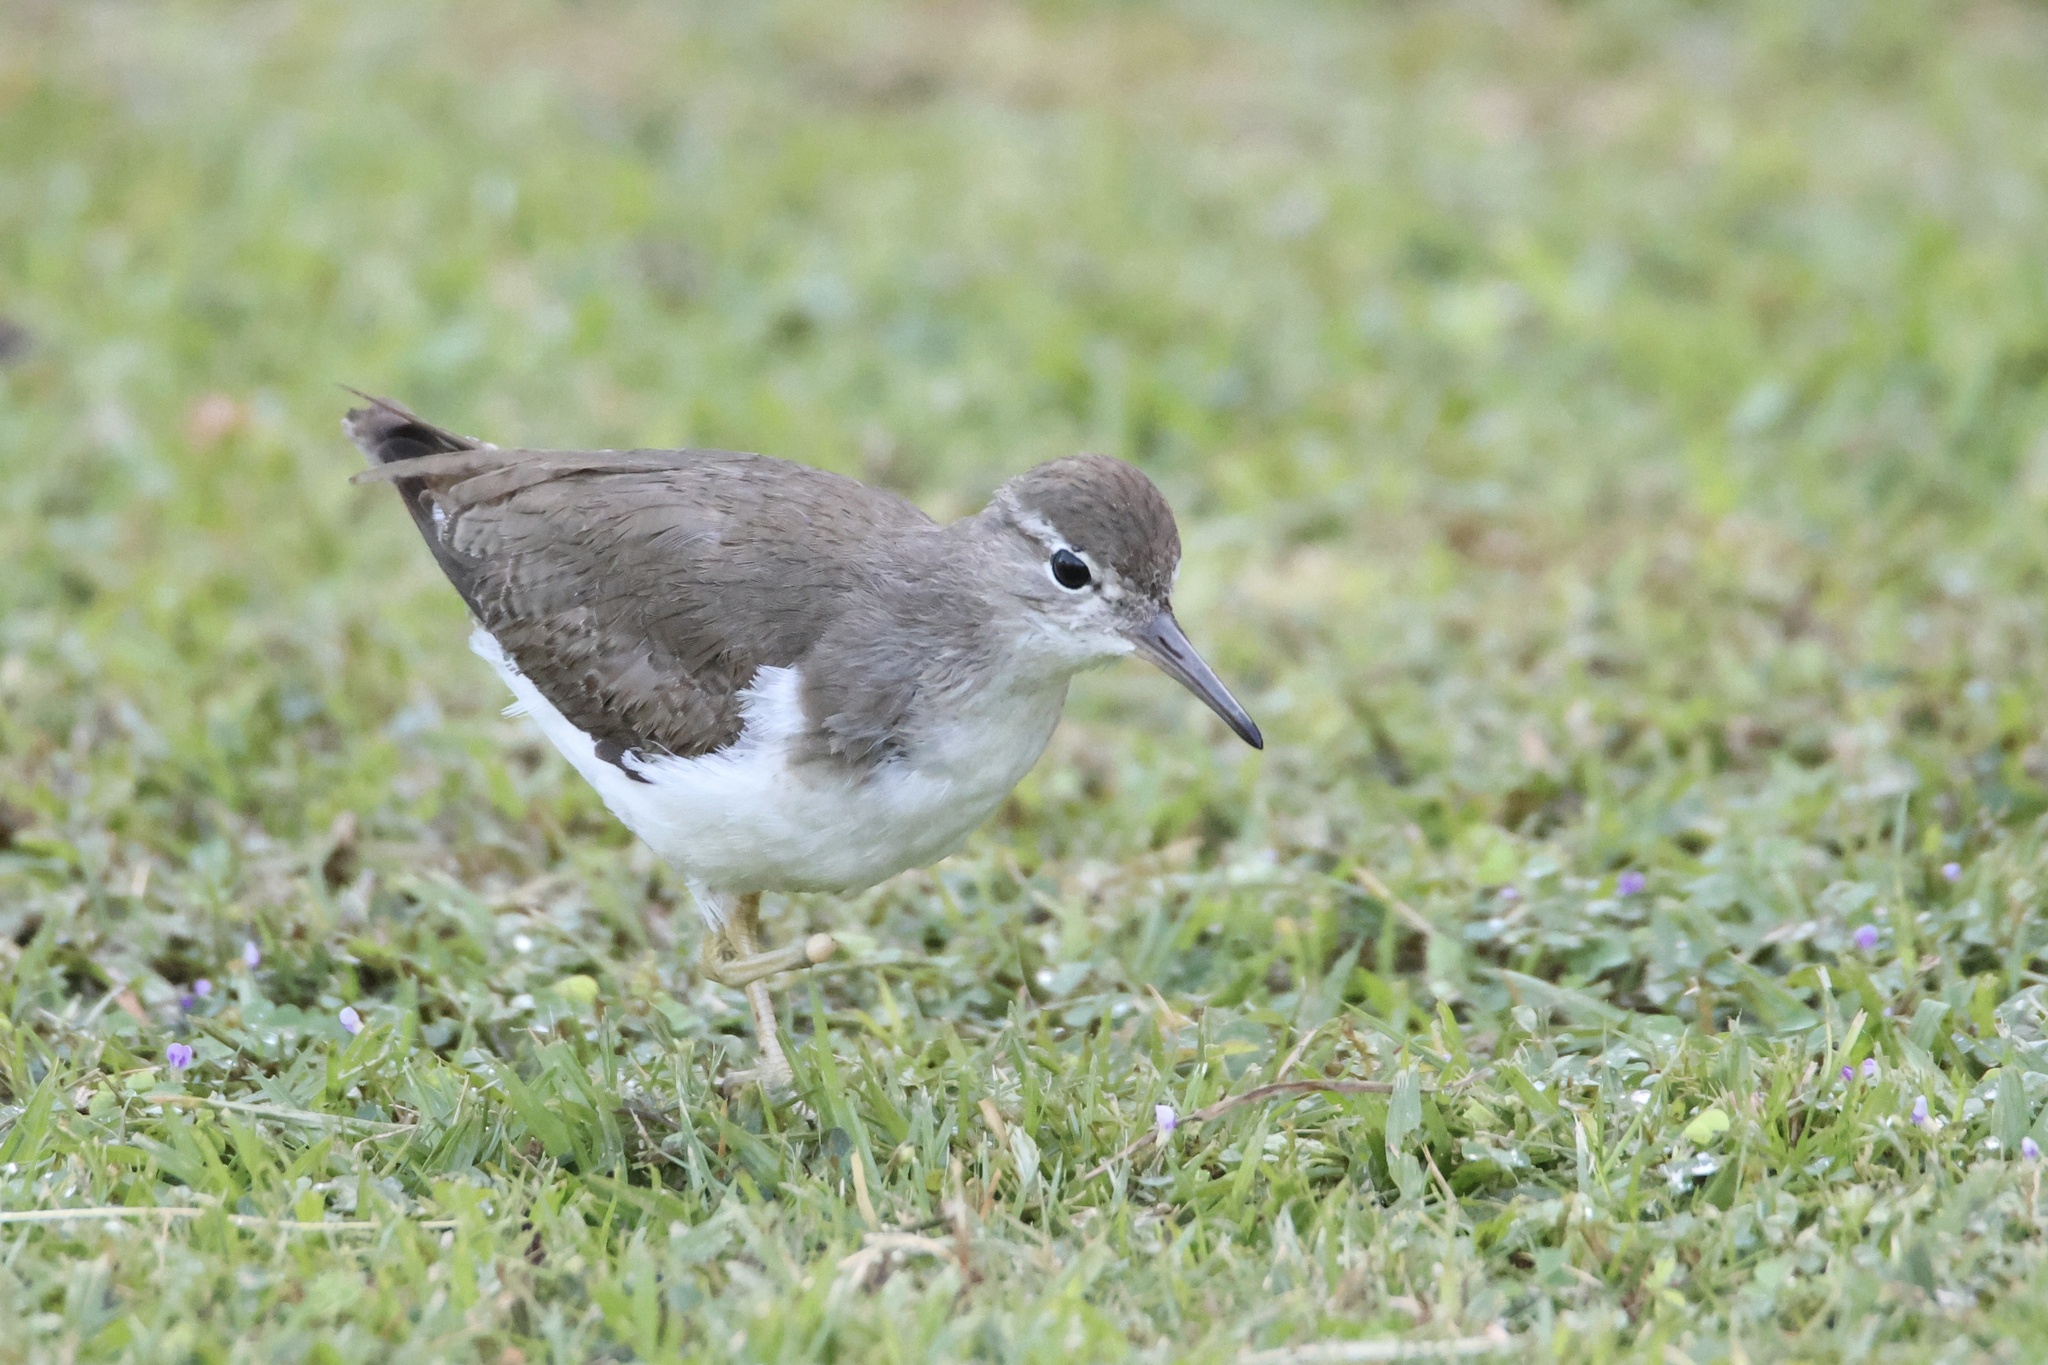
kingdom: Animalia
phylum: Chordata
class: Aves
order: Charadriiformes
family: Scolopacidae
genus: Actitis
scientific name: Actitis macularius
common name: Spotted sandpiper
